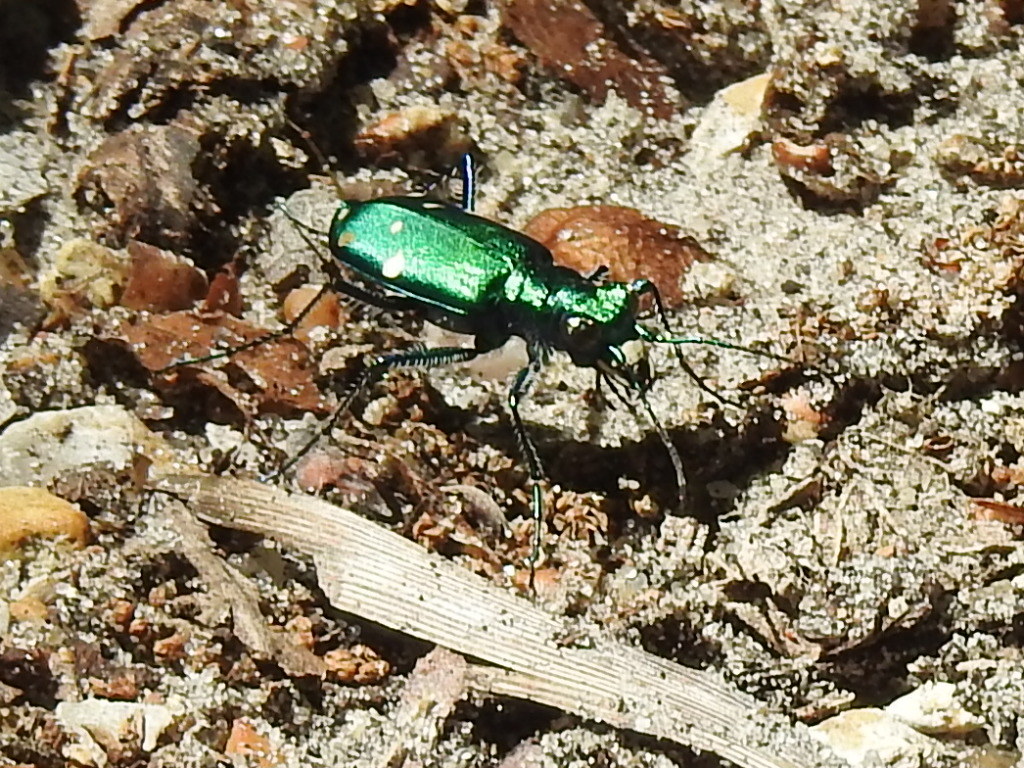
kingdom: Animalia
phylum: Arthropoda
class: Insecta
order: Coleoptera
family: Carabidae
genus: Cicindela
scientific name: Cicindela sexguttata
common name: Six-spotted tiger beetle
